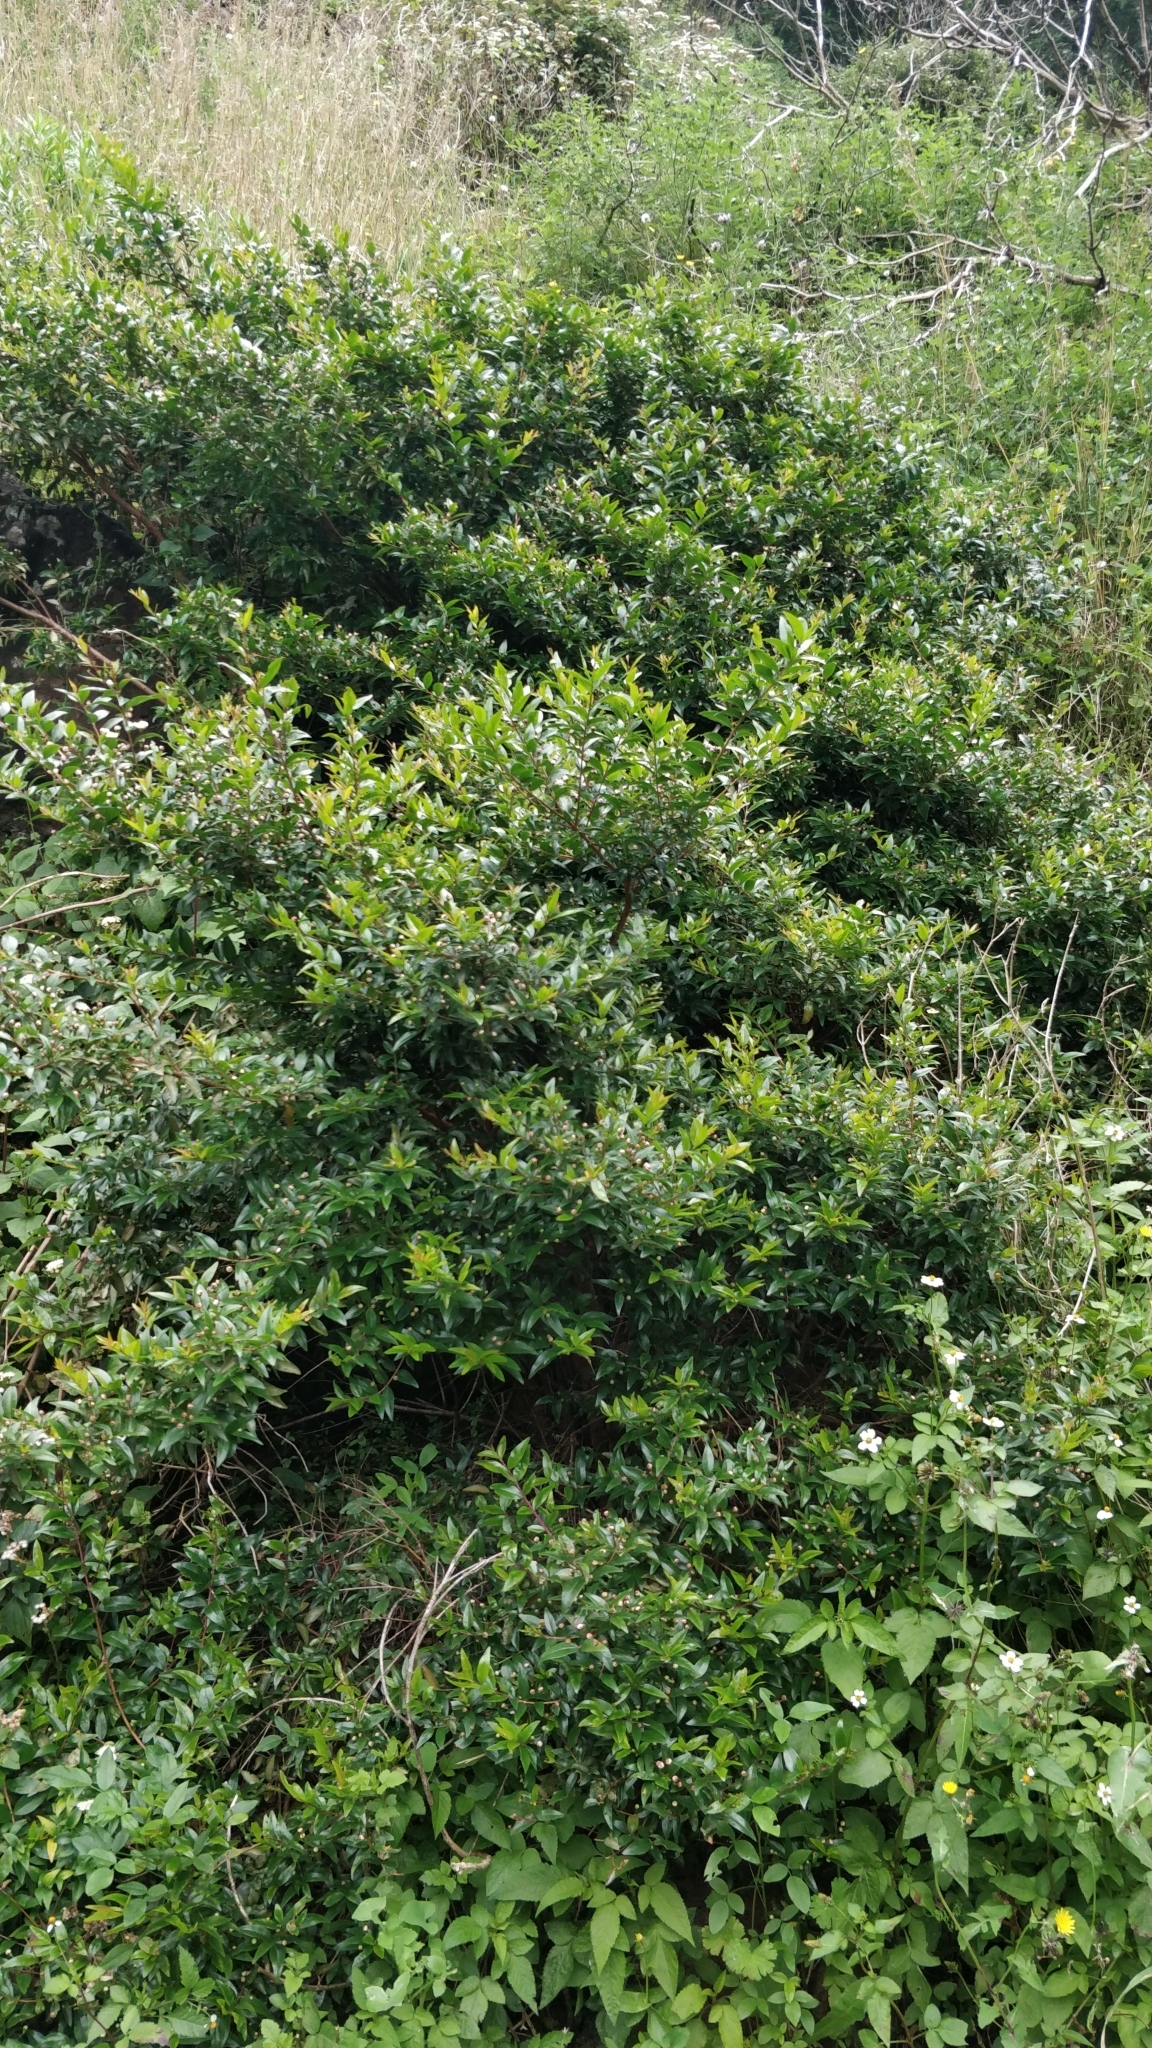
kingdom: Plantae
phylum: Tracheophyta
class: Magnoliopsida
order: Myrtales
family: Myrtaceae
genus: Myrtus
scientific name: Myrtus communis
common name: Myrtle
